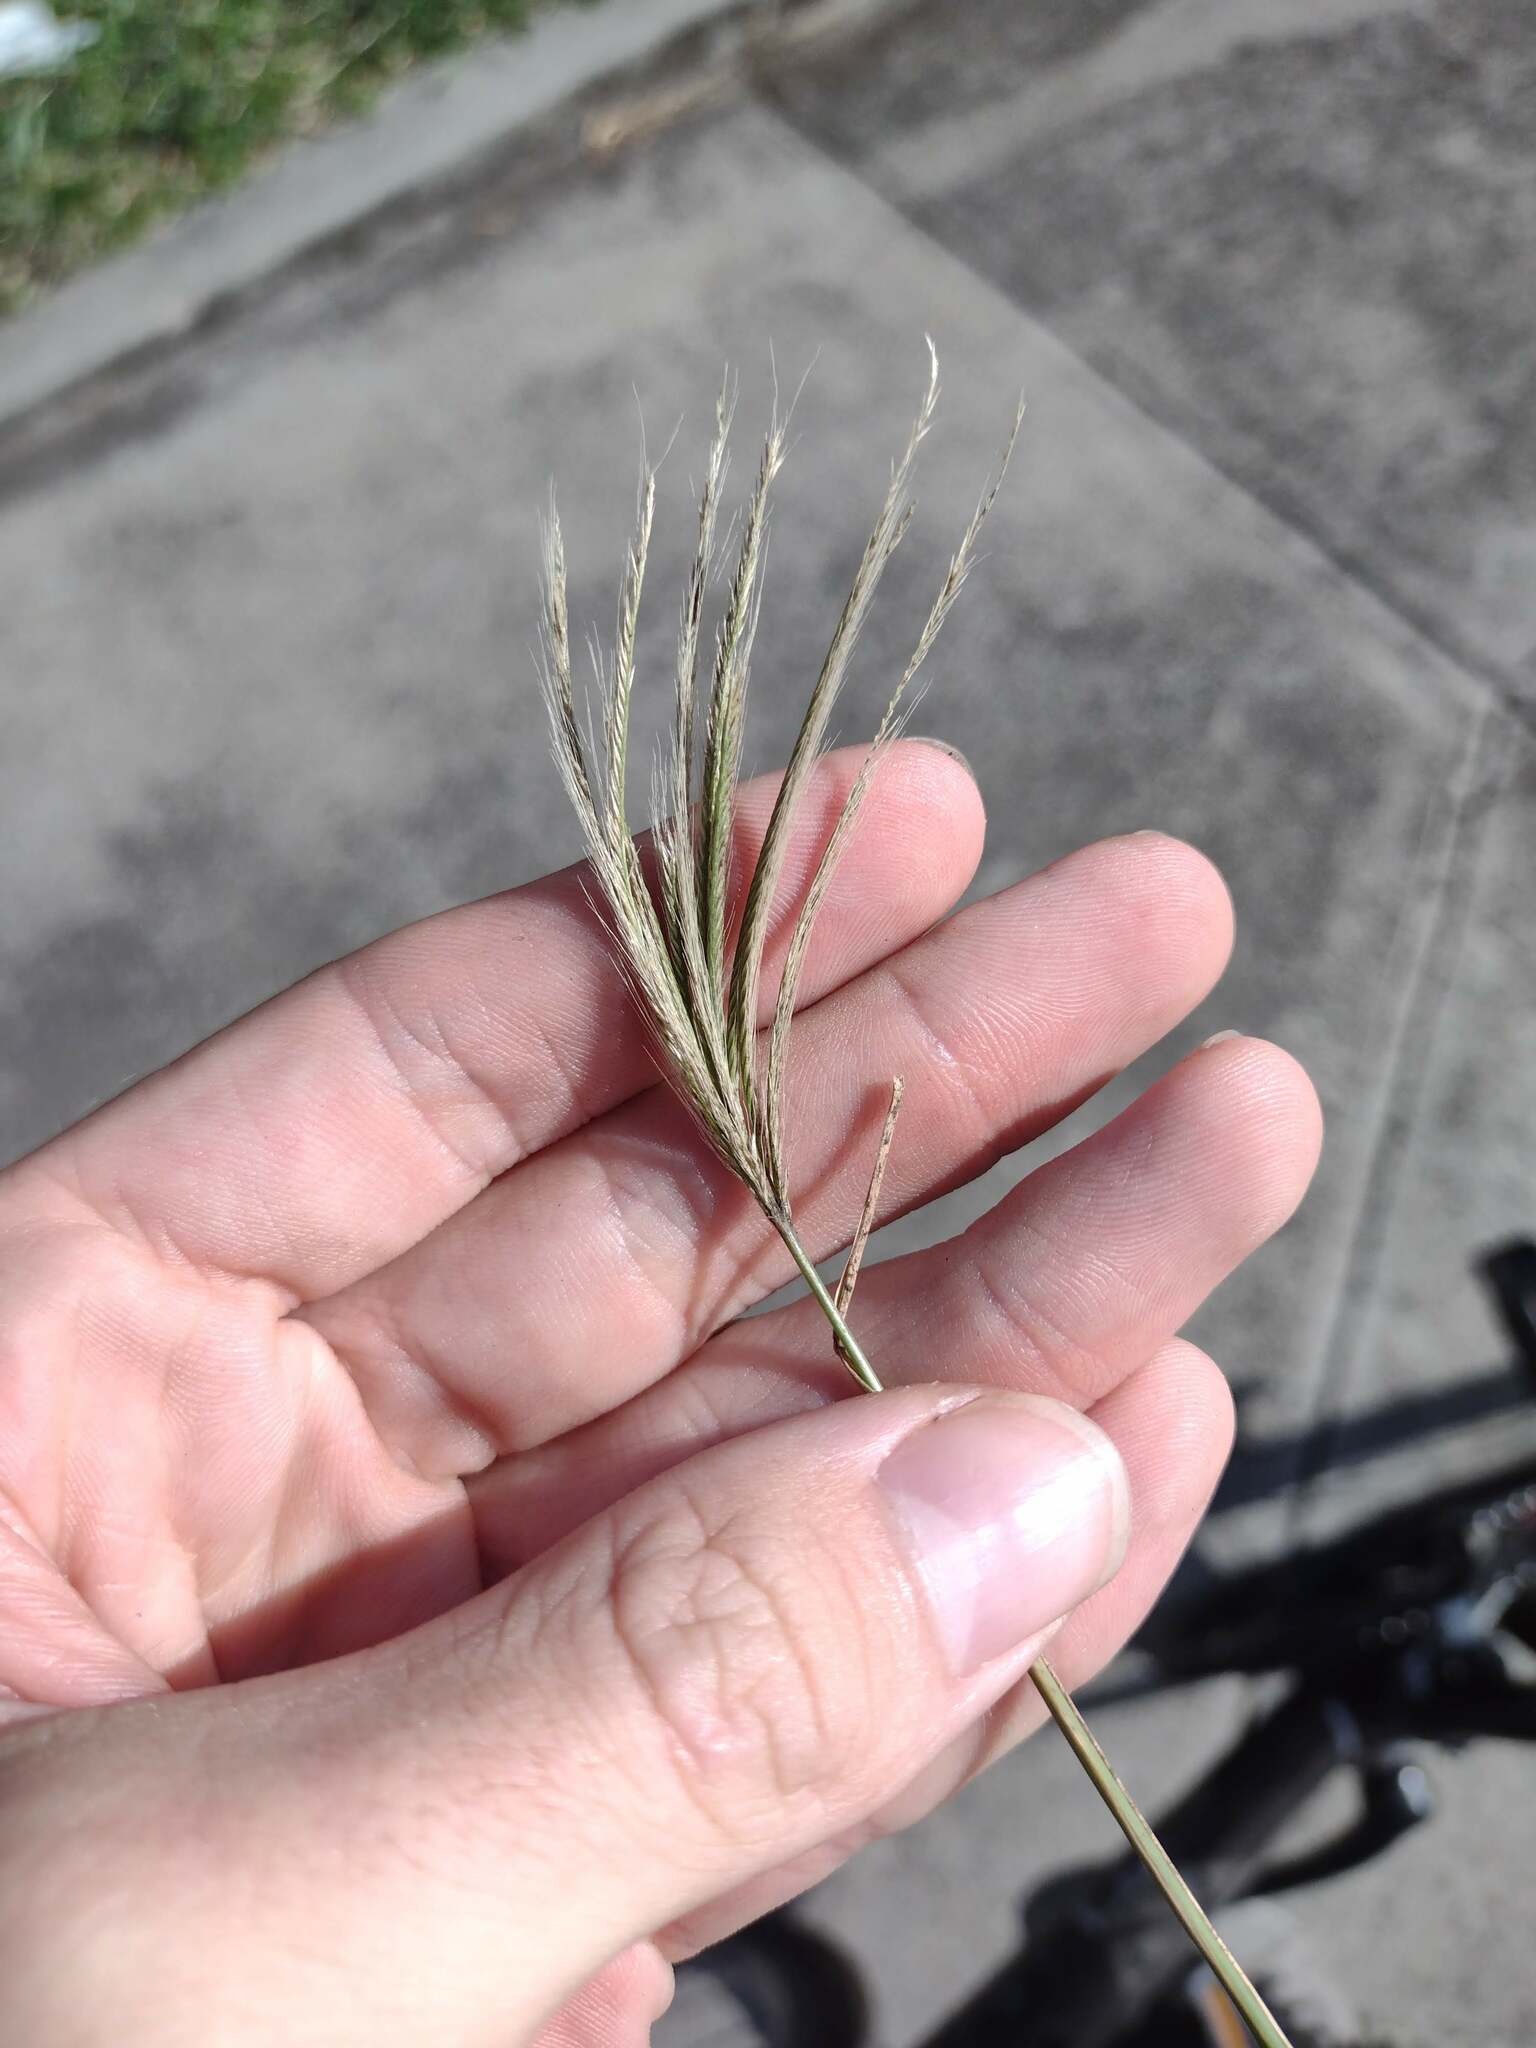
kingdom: Plantae
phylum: Tracheophyta
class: Liliopsida
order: Poales
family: Poaceae
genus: Chloris
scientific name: Chloris radiata
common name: Radiate fingergrass
